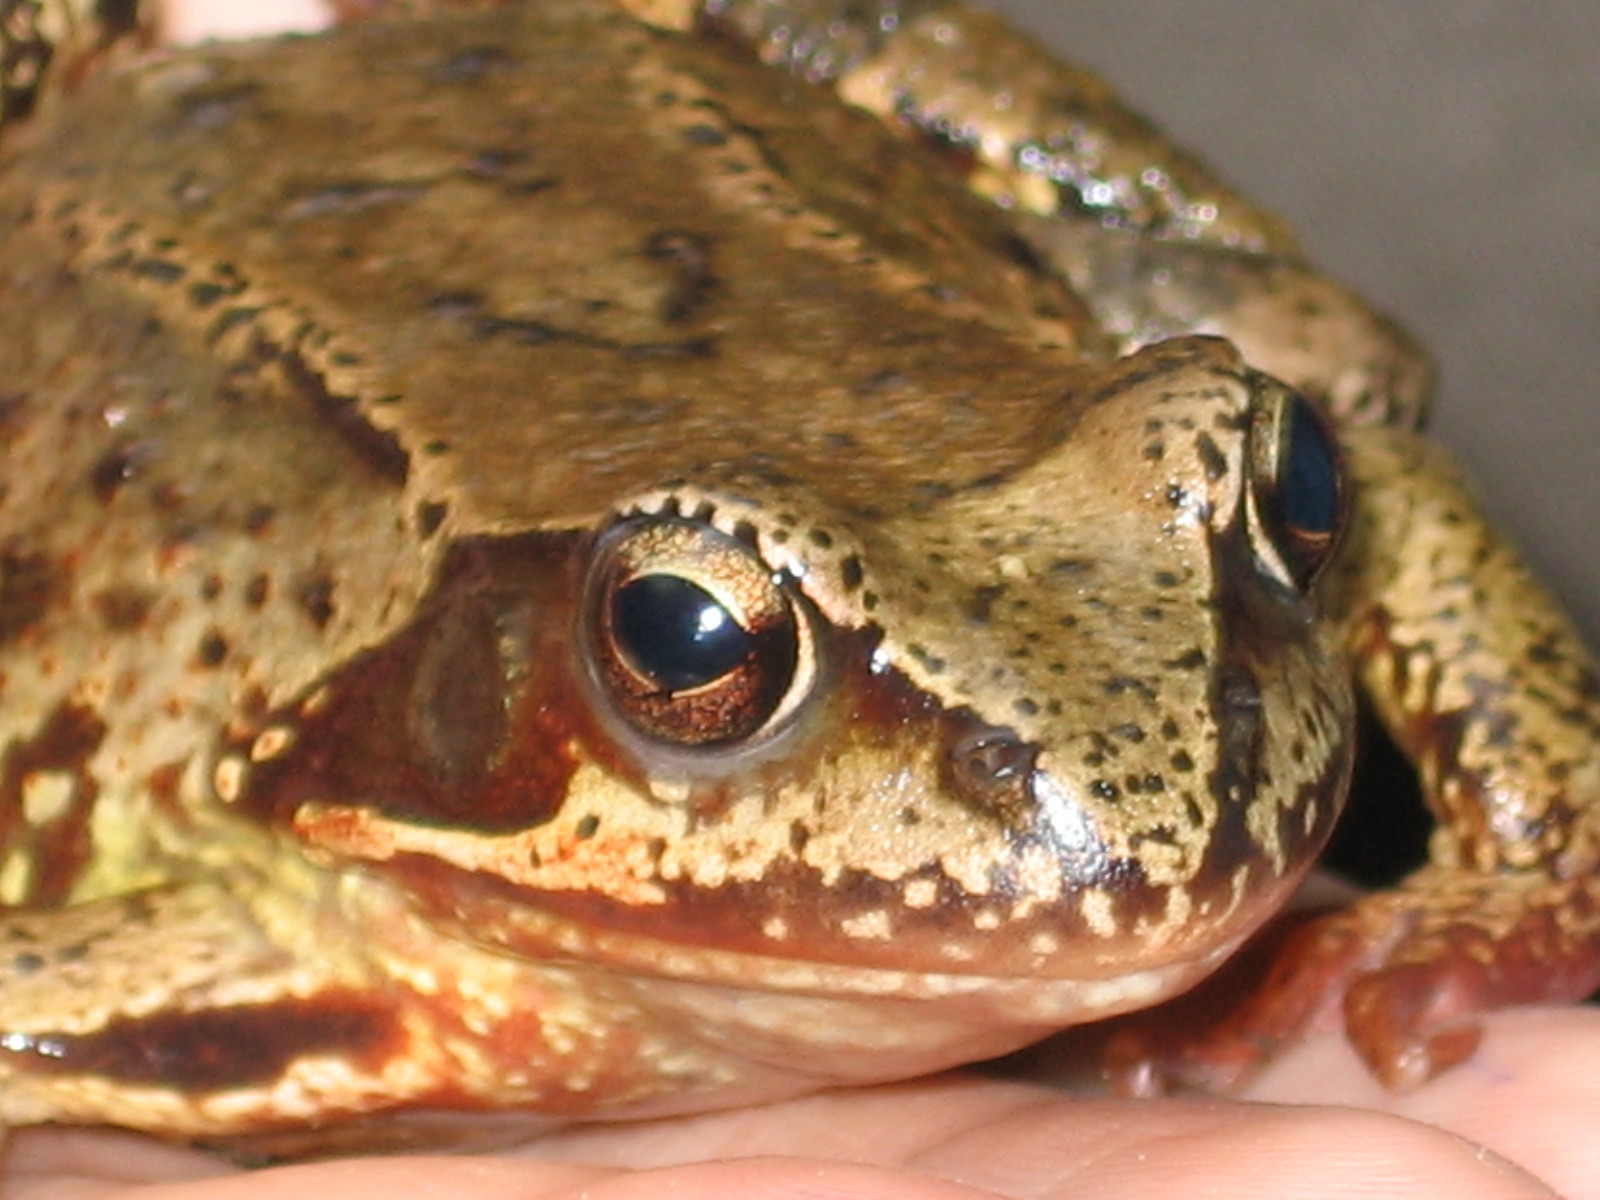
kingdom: Animalia
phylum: Chordata
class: Amphibia
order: Anura
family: Ranidae
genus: Rana
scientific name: Rana temporaria
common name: Common frog
